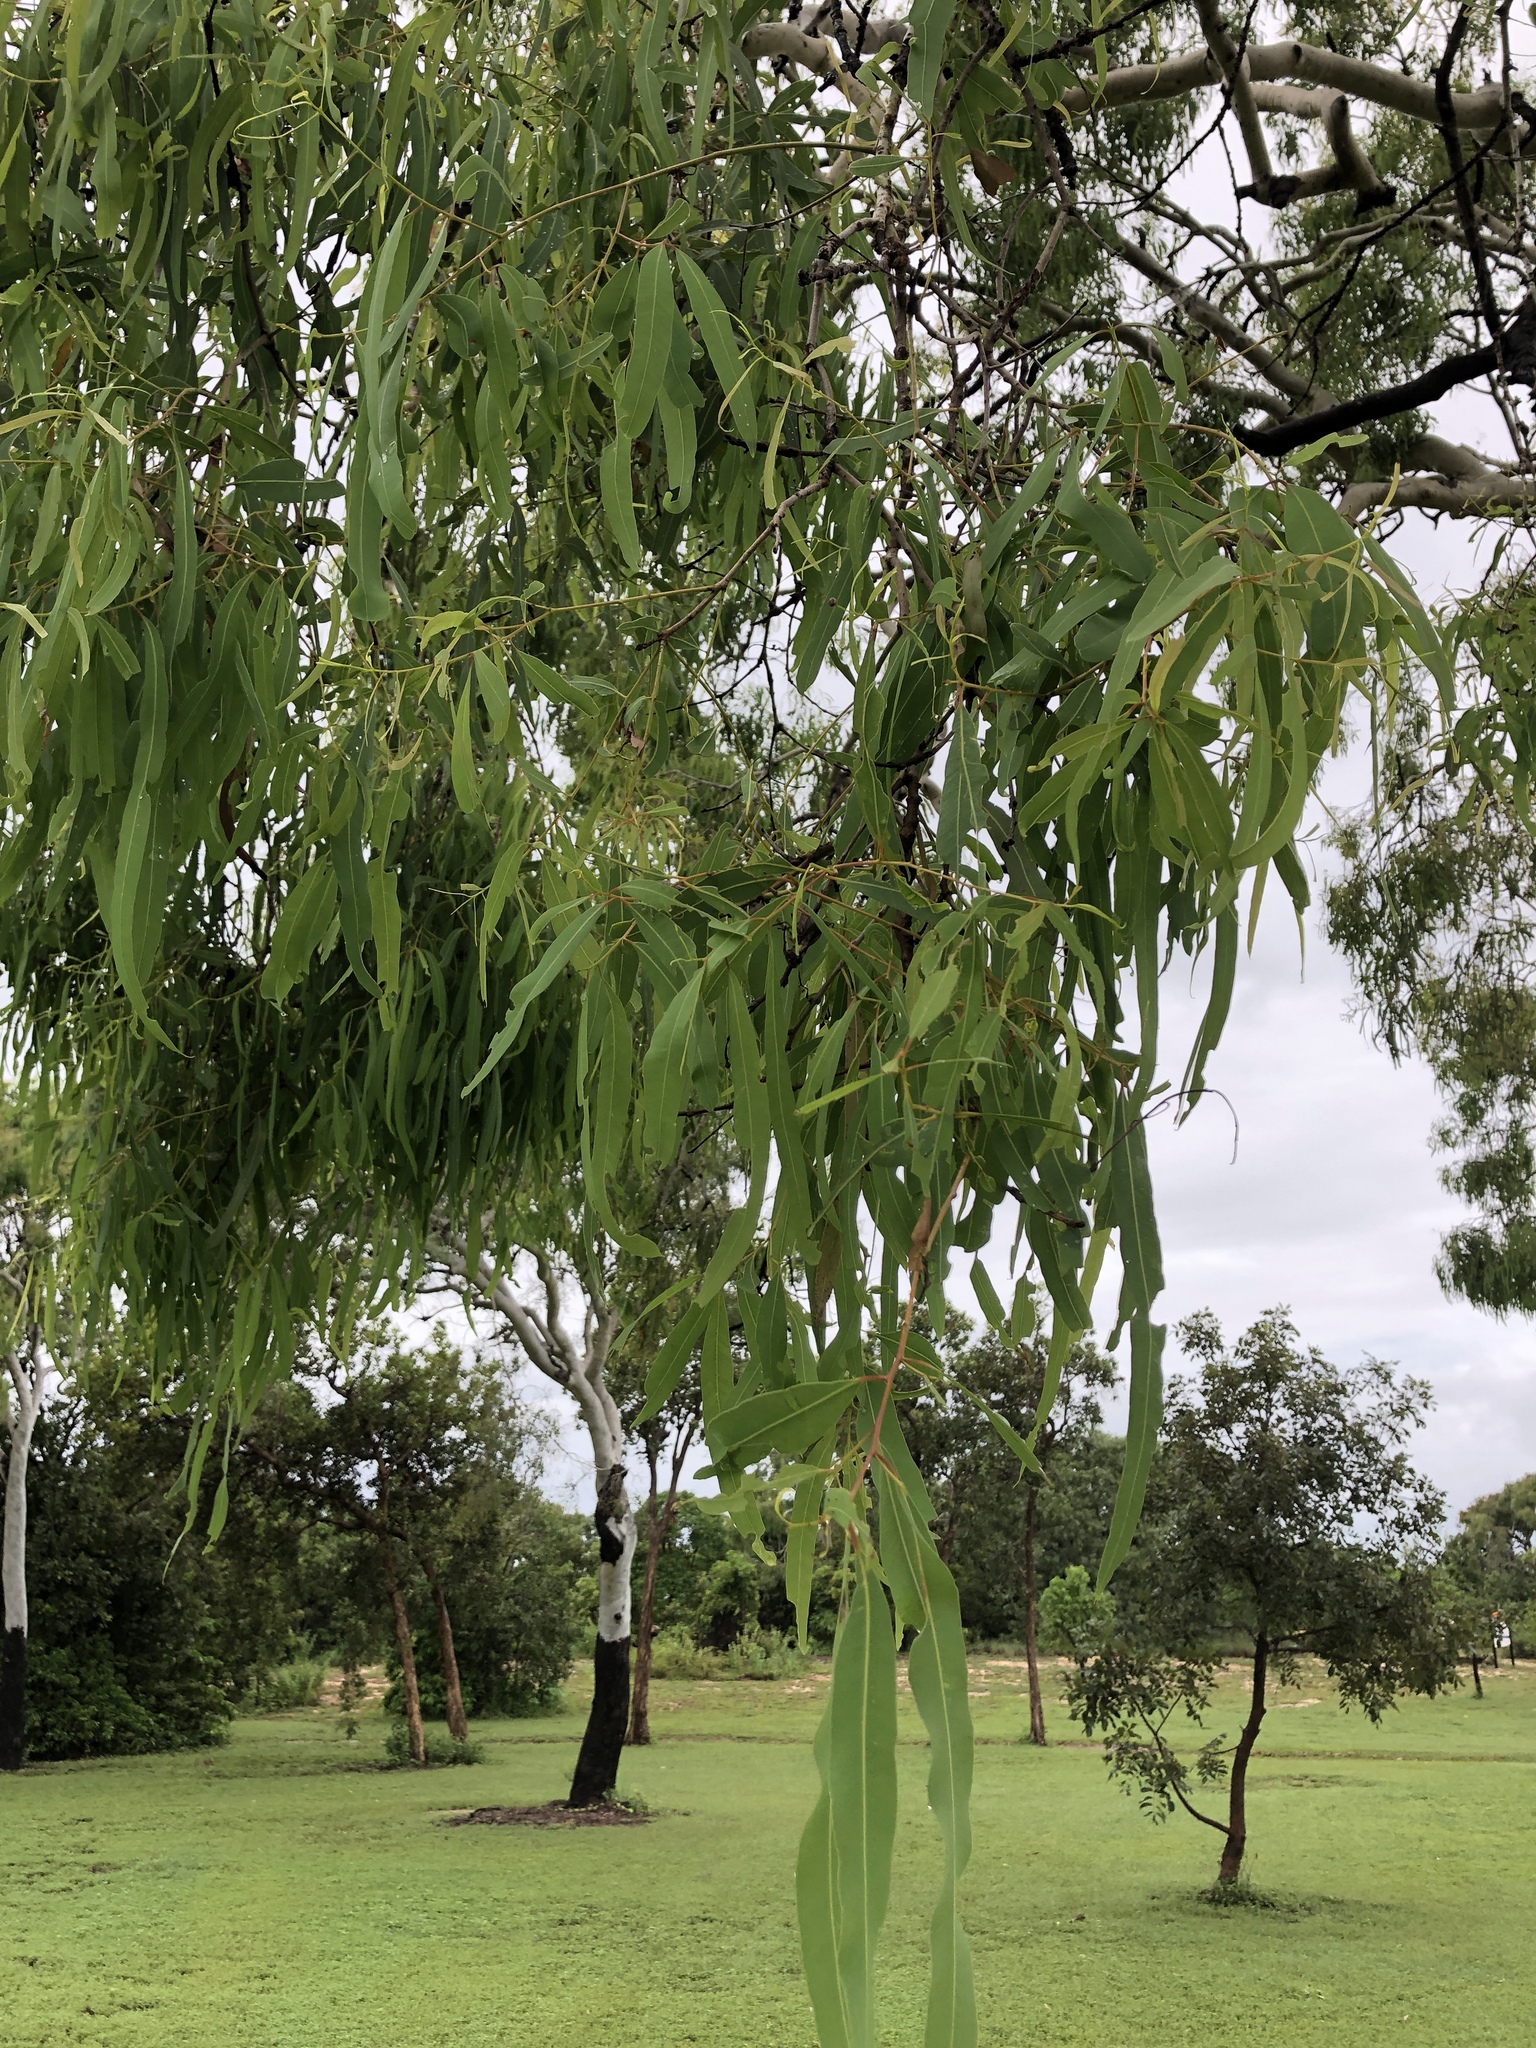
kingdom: Plantae
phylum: Tracheophyta
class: Magnoliopsida
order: Myrtales
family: Myrtaceae
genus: Corymbia
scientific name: Corymbia tessellaris
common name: Carbeen
